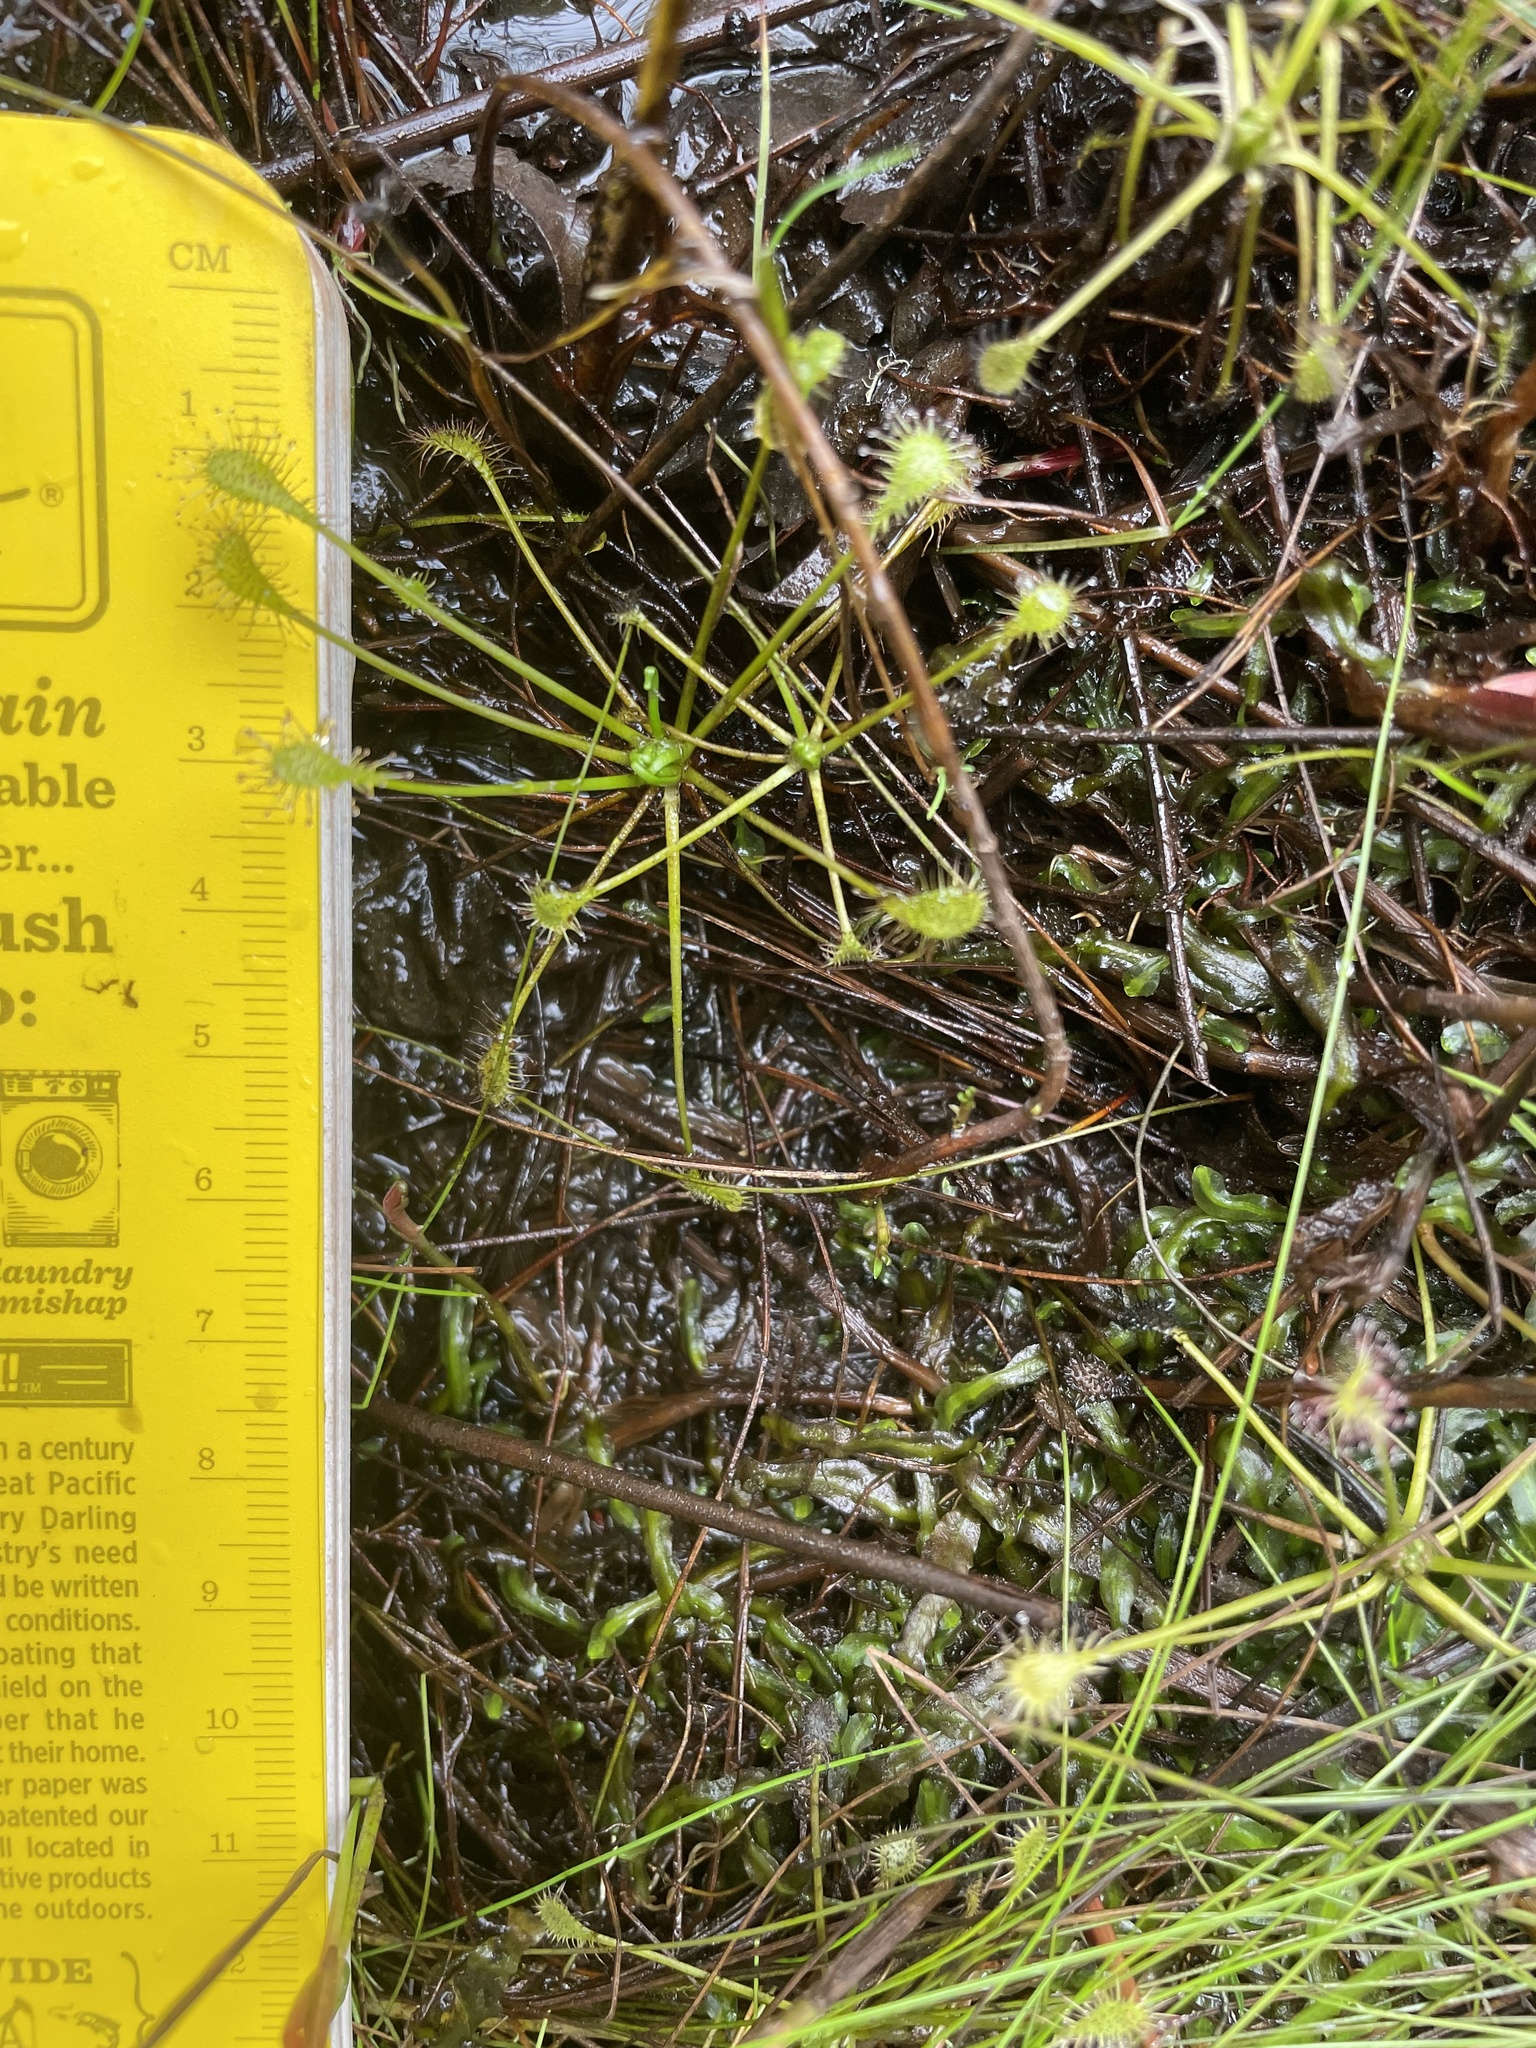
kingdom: Plantae
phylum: Tracheophyta
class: Magnoliopsida
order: Caryophyllales
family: Droseraceae
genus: Drosera
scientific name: Drosera intermedia
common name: Oblong-leaved sundew
